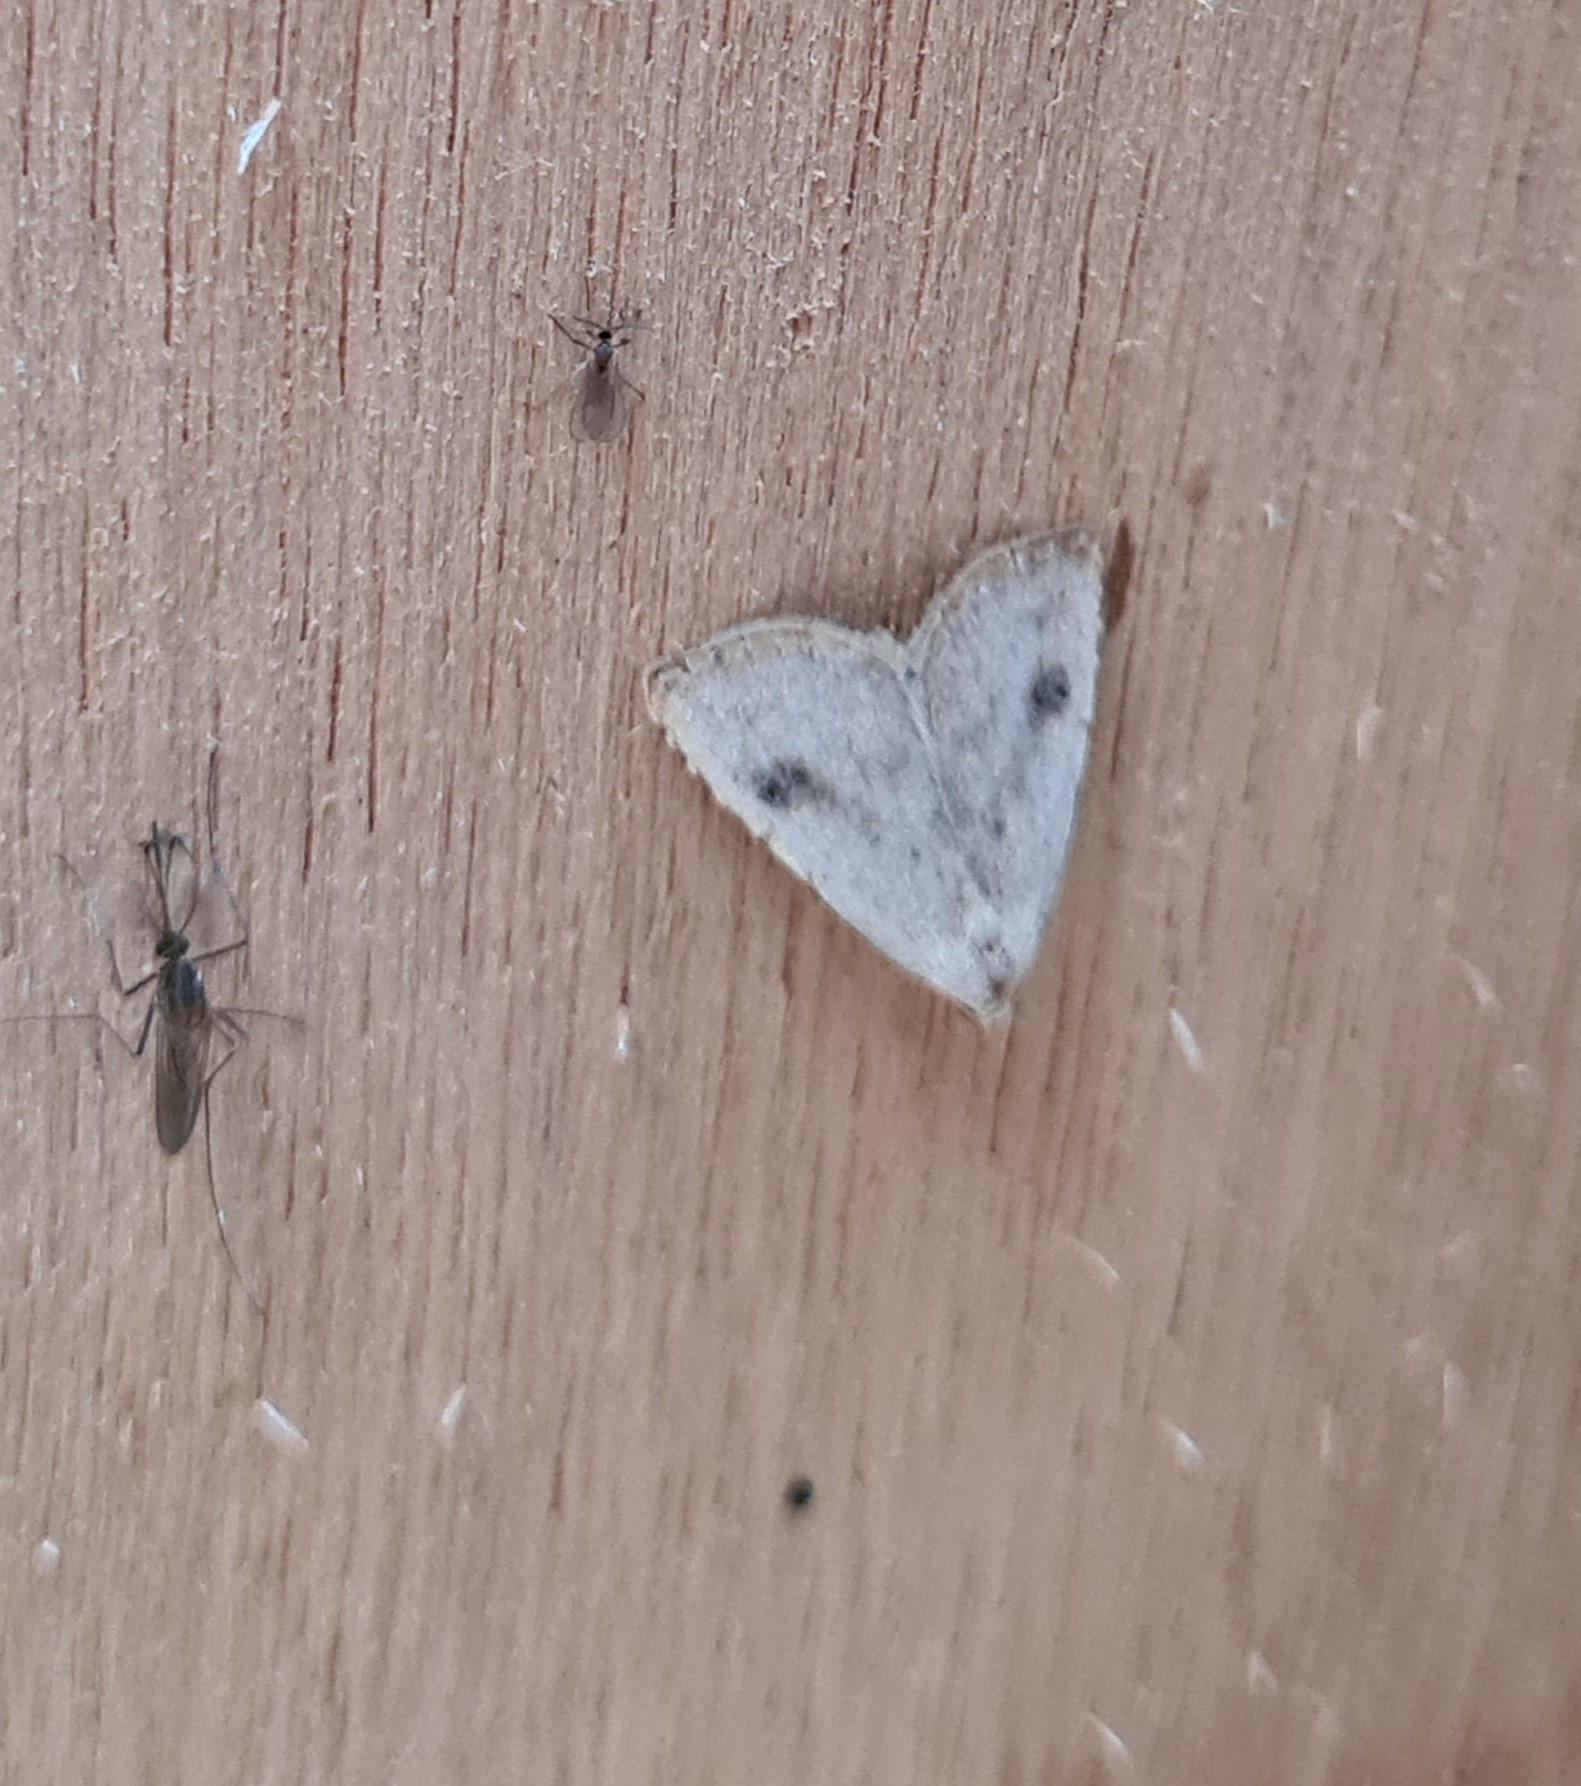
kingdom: Animalia
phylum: Arthropoda
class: Insecta
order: Lepidoptera
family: Erebidae
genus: Rivula
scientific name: Rivula sericealis
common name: Straw dot
